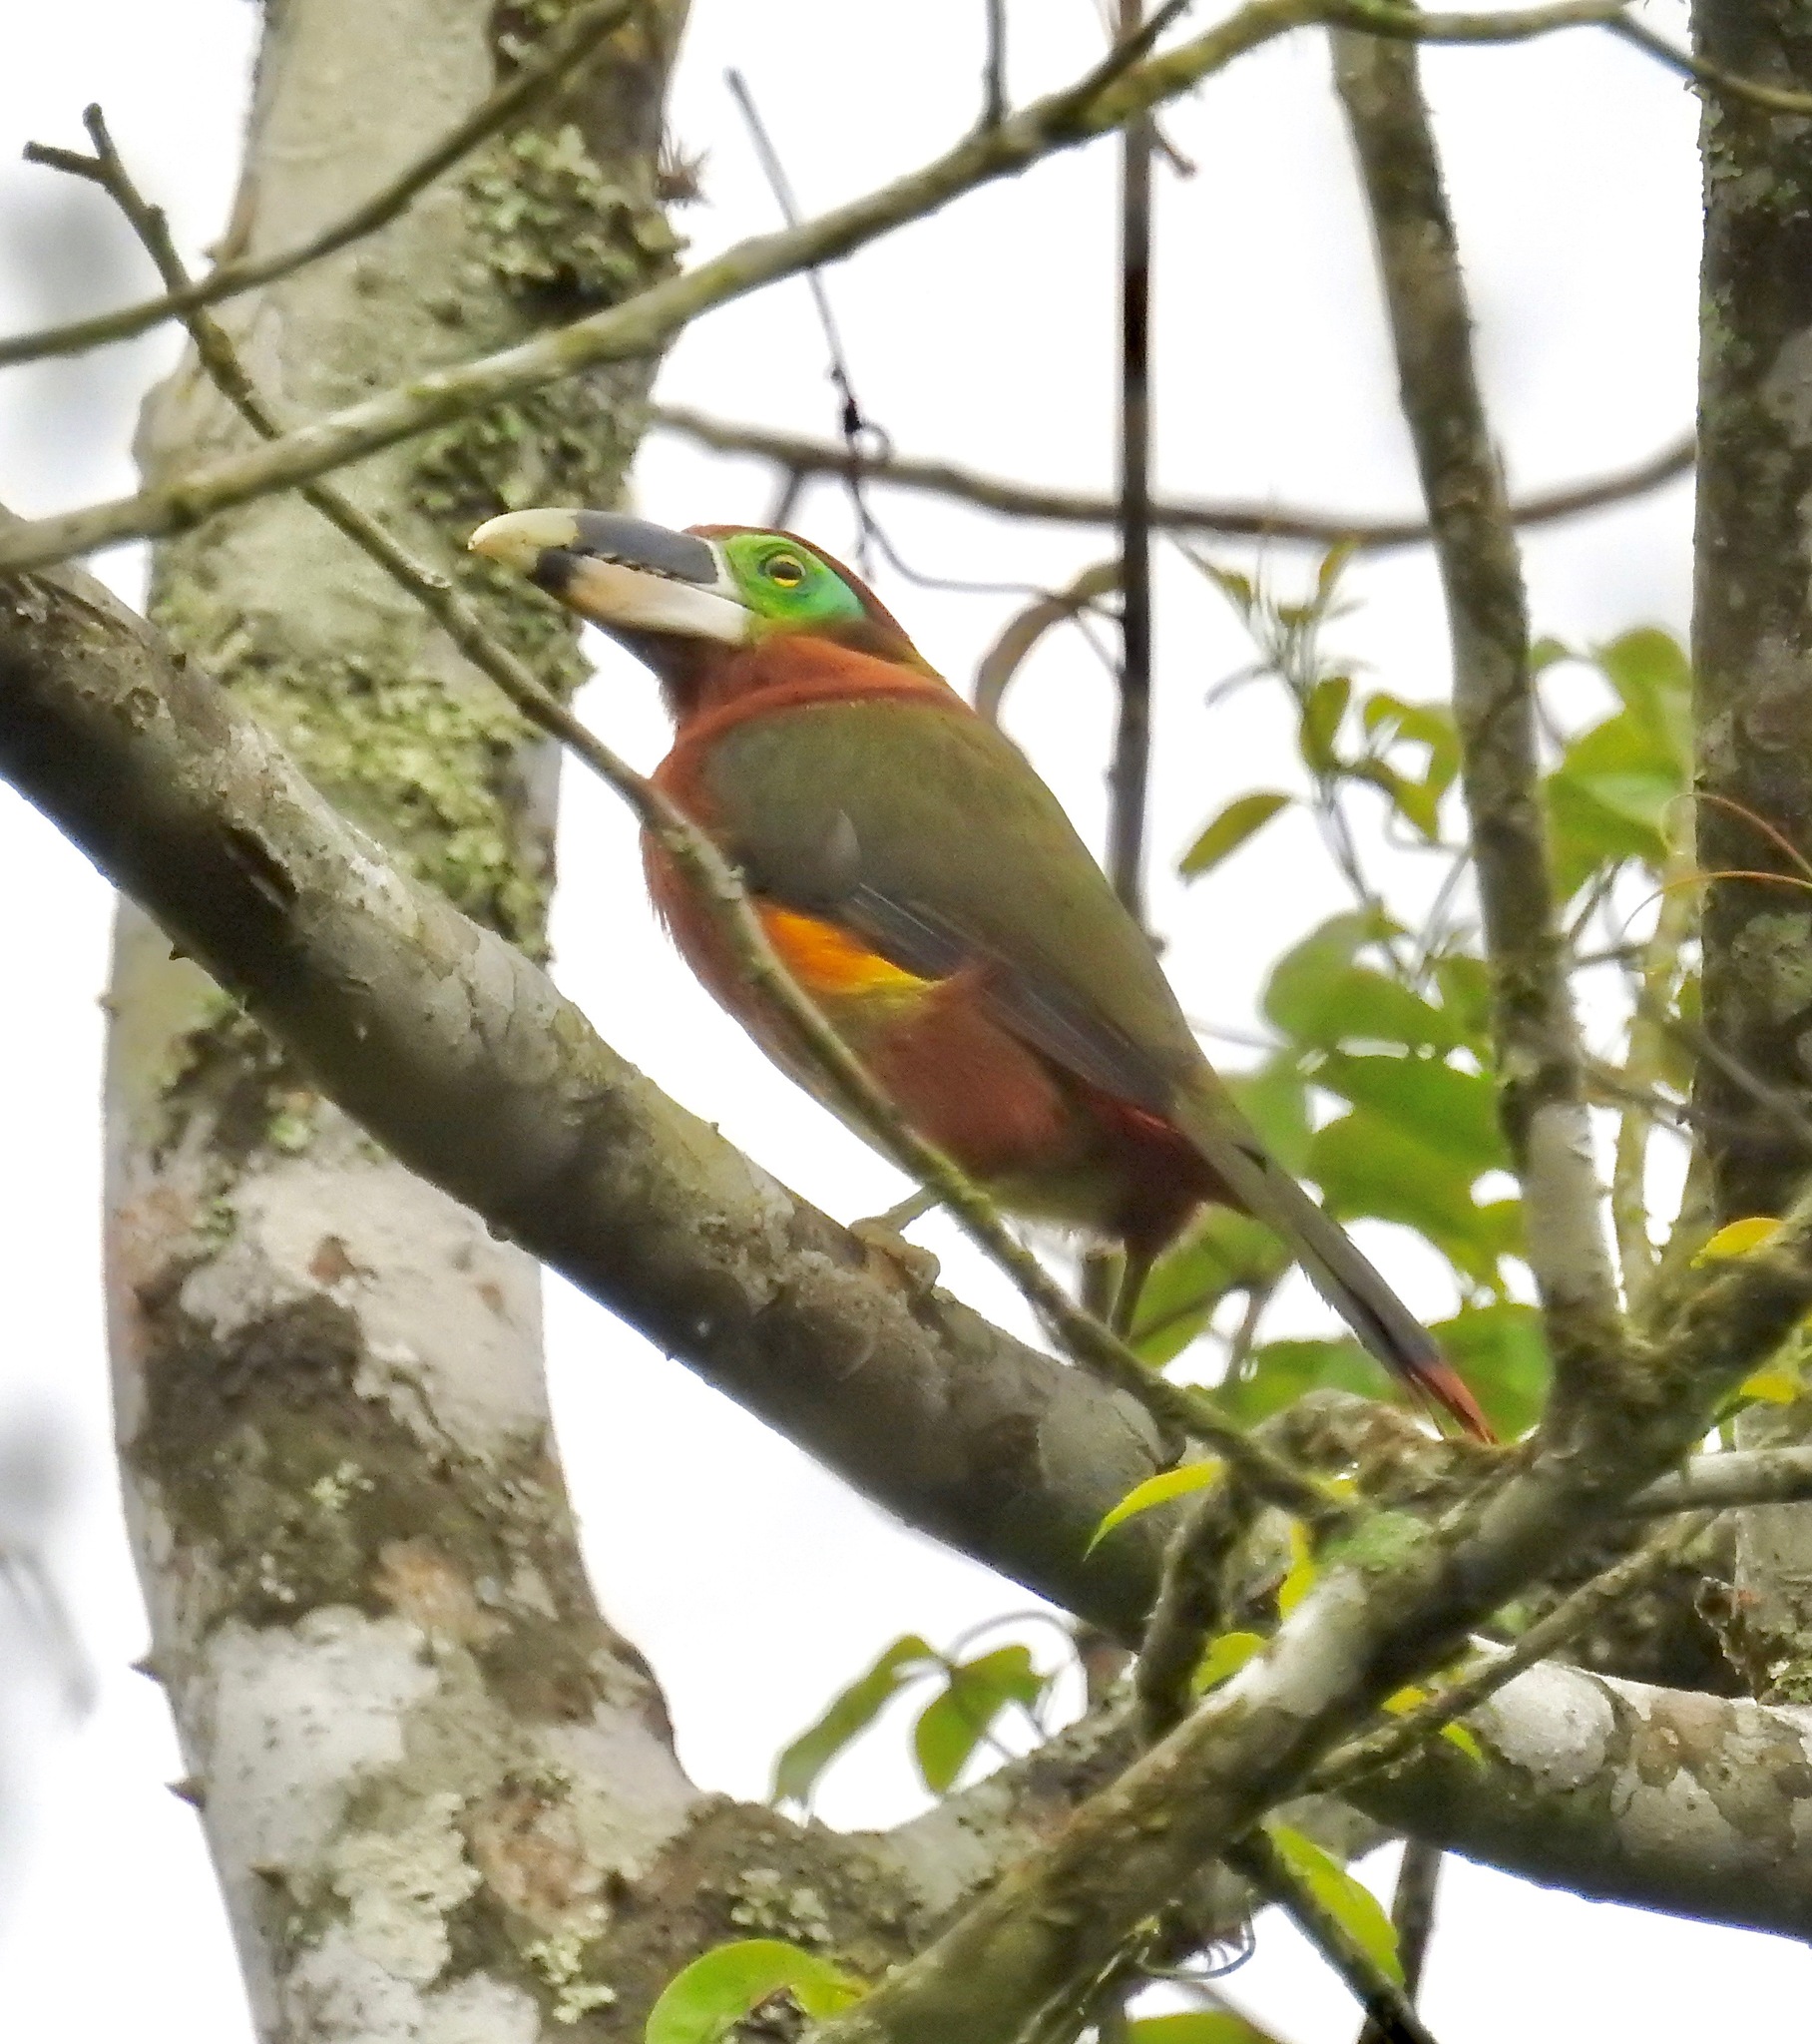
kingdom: Animalia
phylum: Chordata
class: Aves
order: Piciformes
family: Ramphastidae
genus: Selenidera
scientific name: Selenidera gouldii
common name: Gould's toucanet
